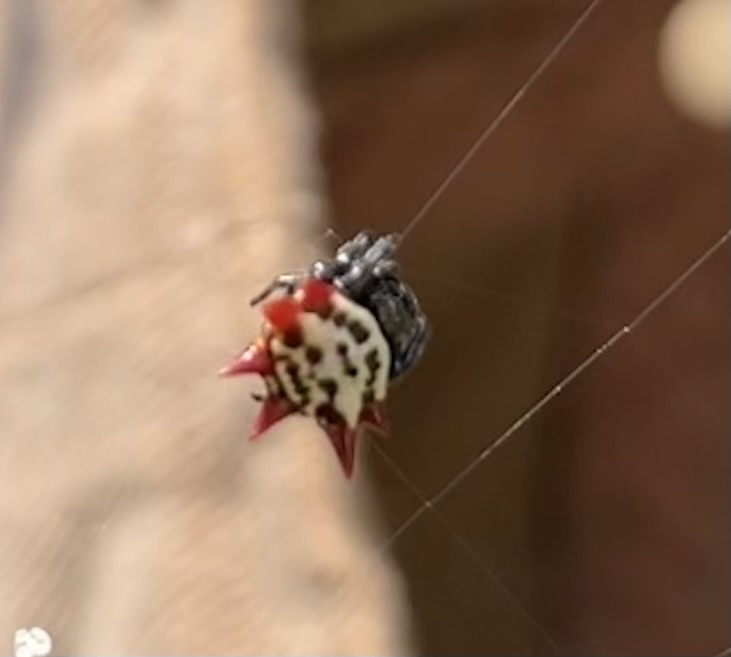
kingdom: Animalia
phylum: Arthropoda
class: Arachnida
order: Araneae
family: Araneidae
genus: Gasteracantha
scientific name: Gasteracantha cancriformis
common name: Orb weavers
